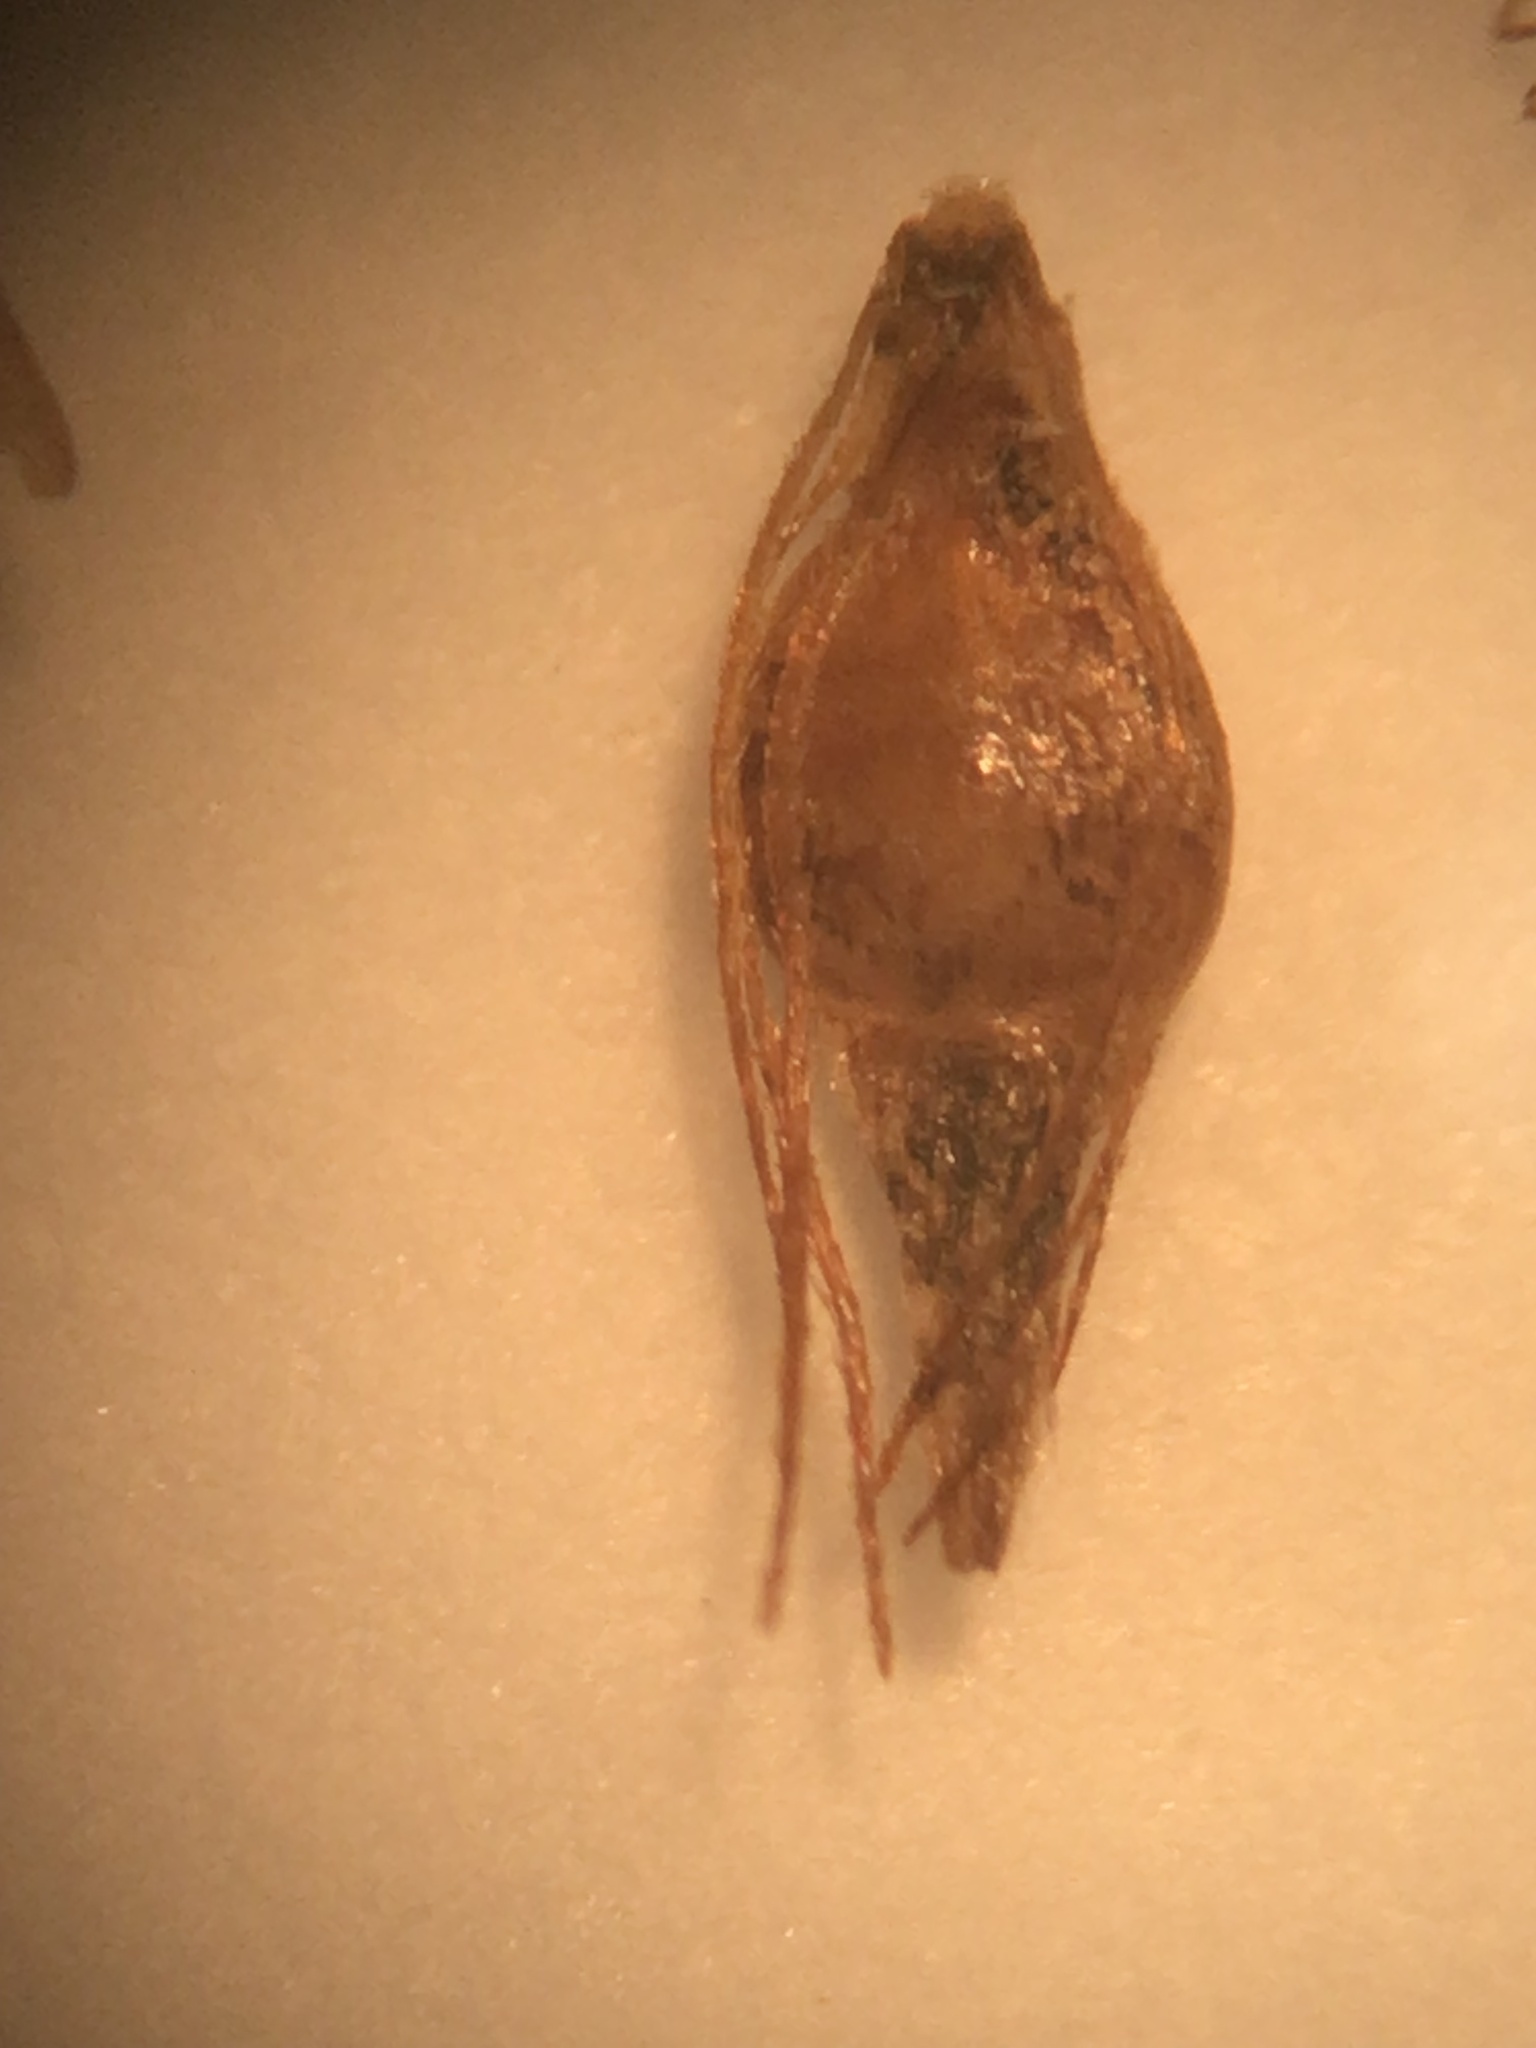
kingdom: Plantae
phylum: Tracheophyta
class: Liliopsida
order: Poales
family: Cyperaceae
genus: Rhynchospora
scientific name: Rhynchospora capitellata
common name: Brownish beaksedge
